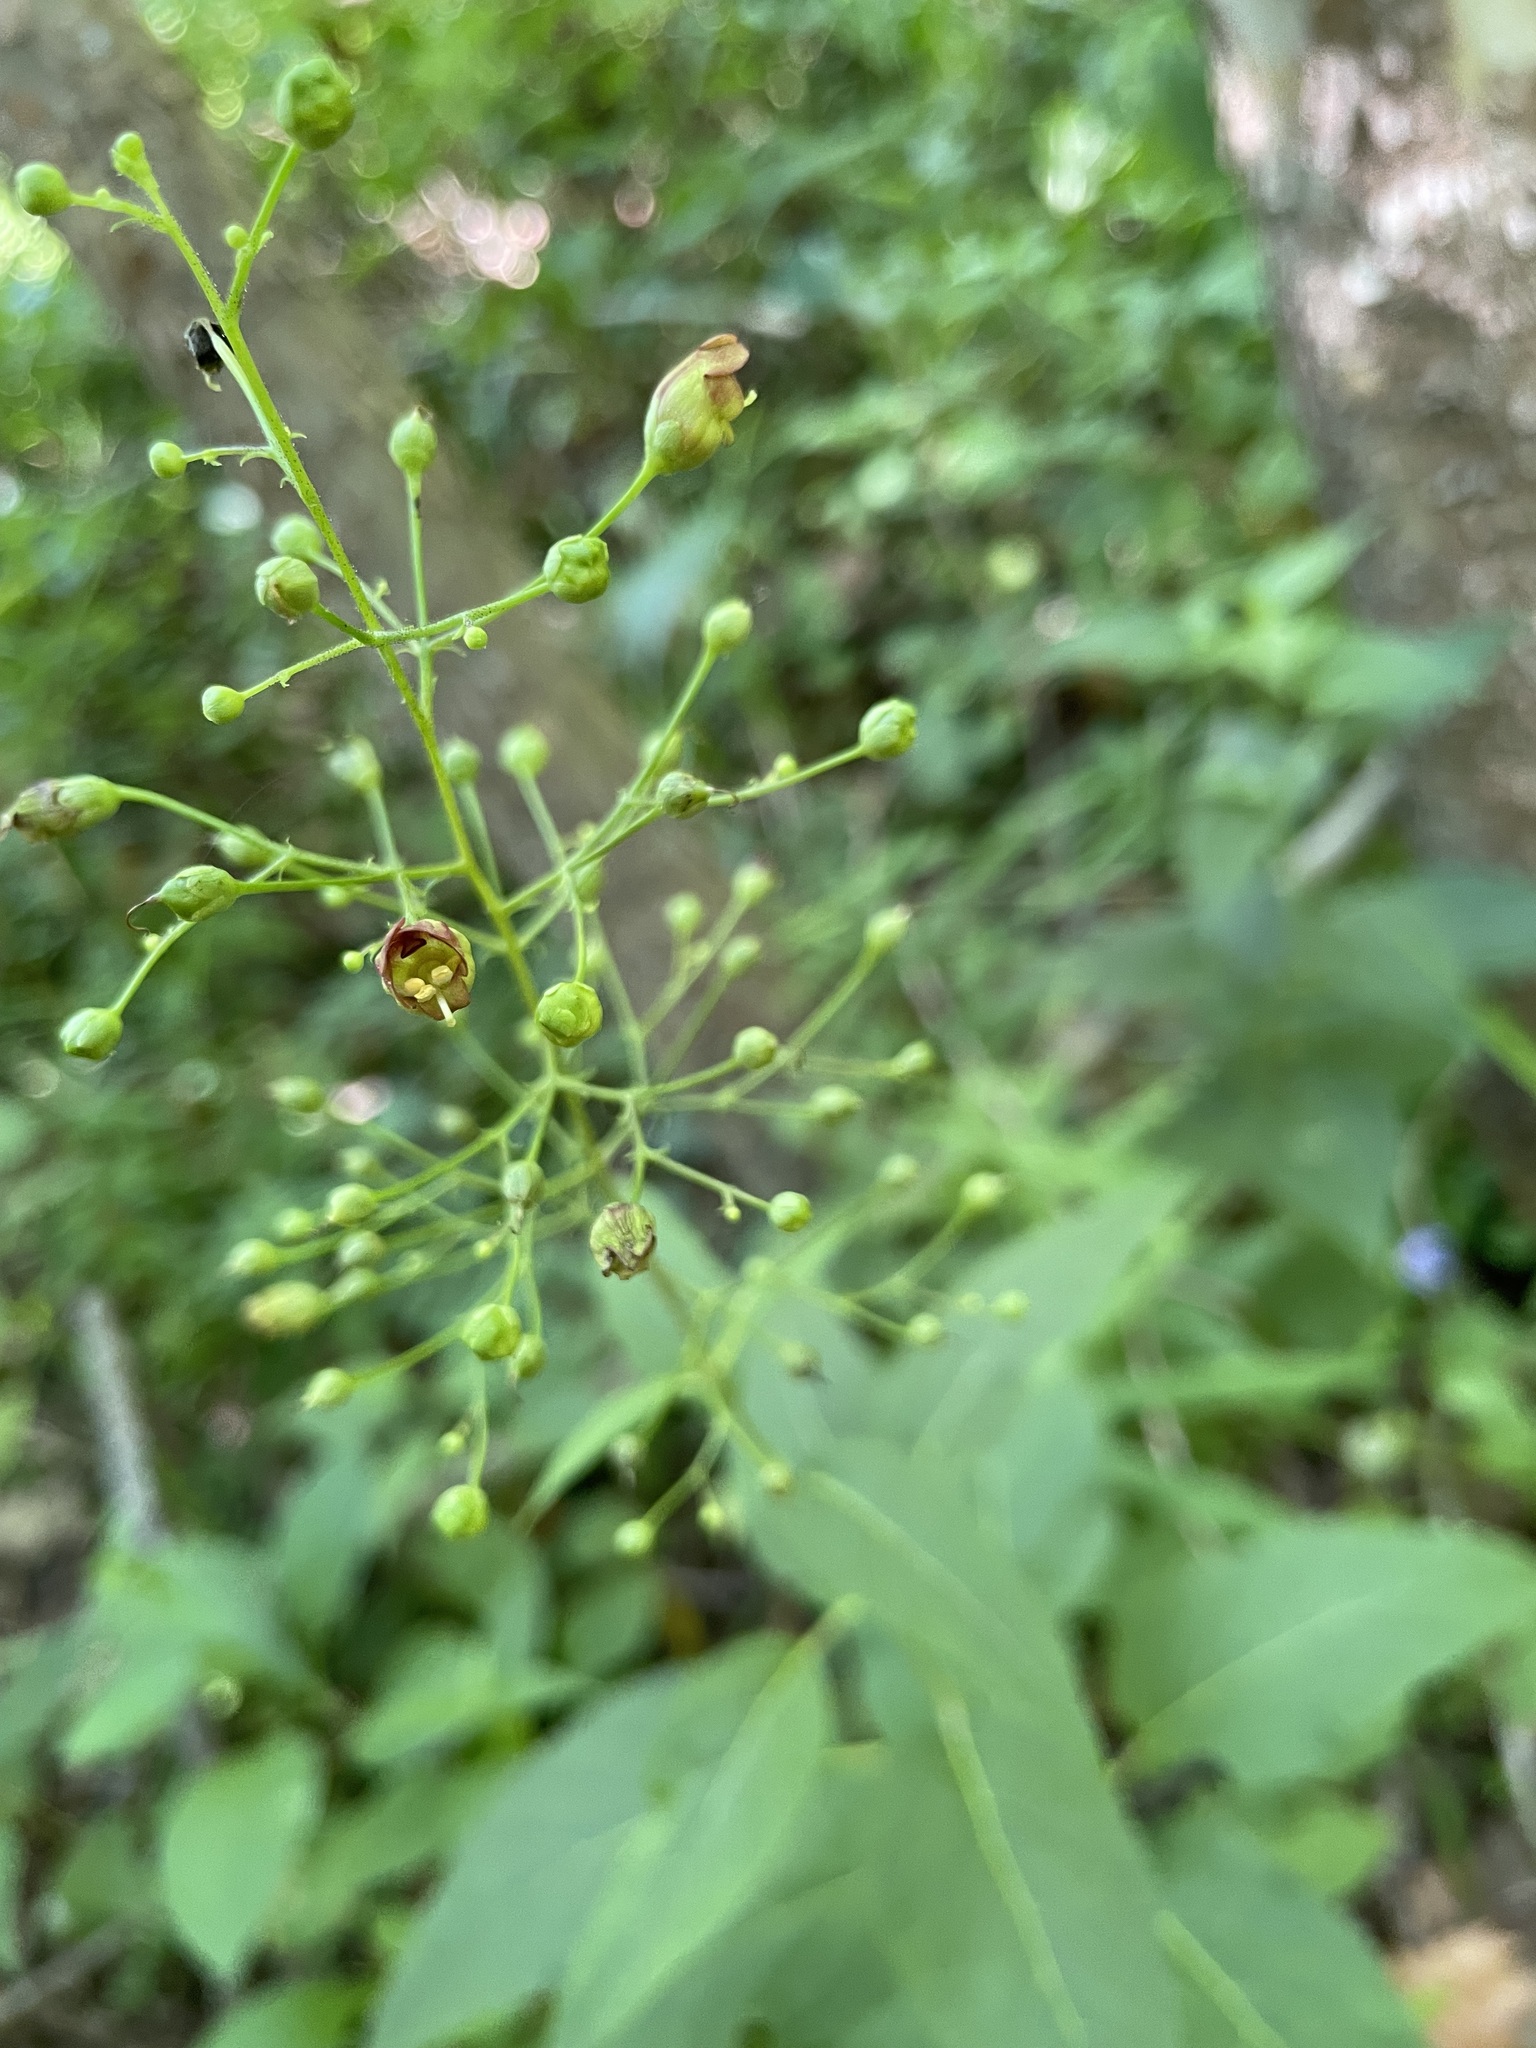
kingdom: Plantae
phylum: Tracheophyta
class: Magnoliopsida
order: Lamiales
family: Scrophulariaceae
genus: Scrophularia
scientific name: Scrophularia marilandica
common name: Eastern figwort
